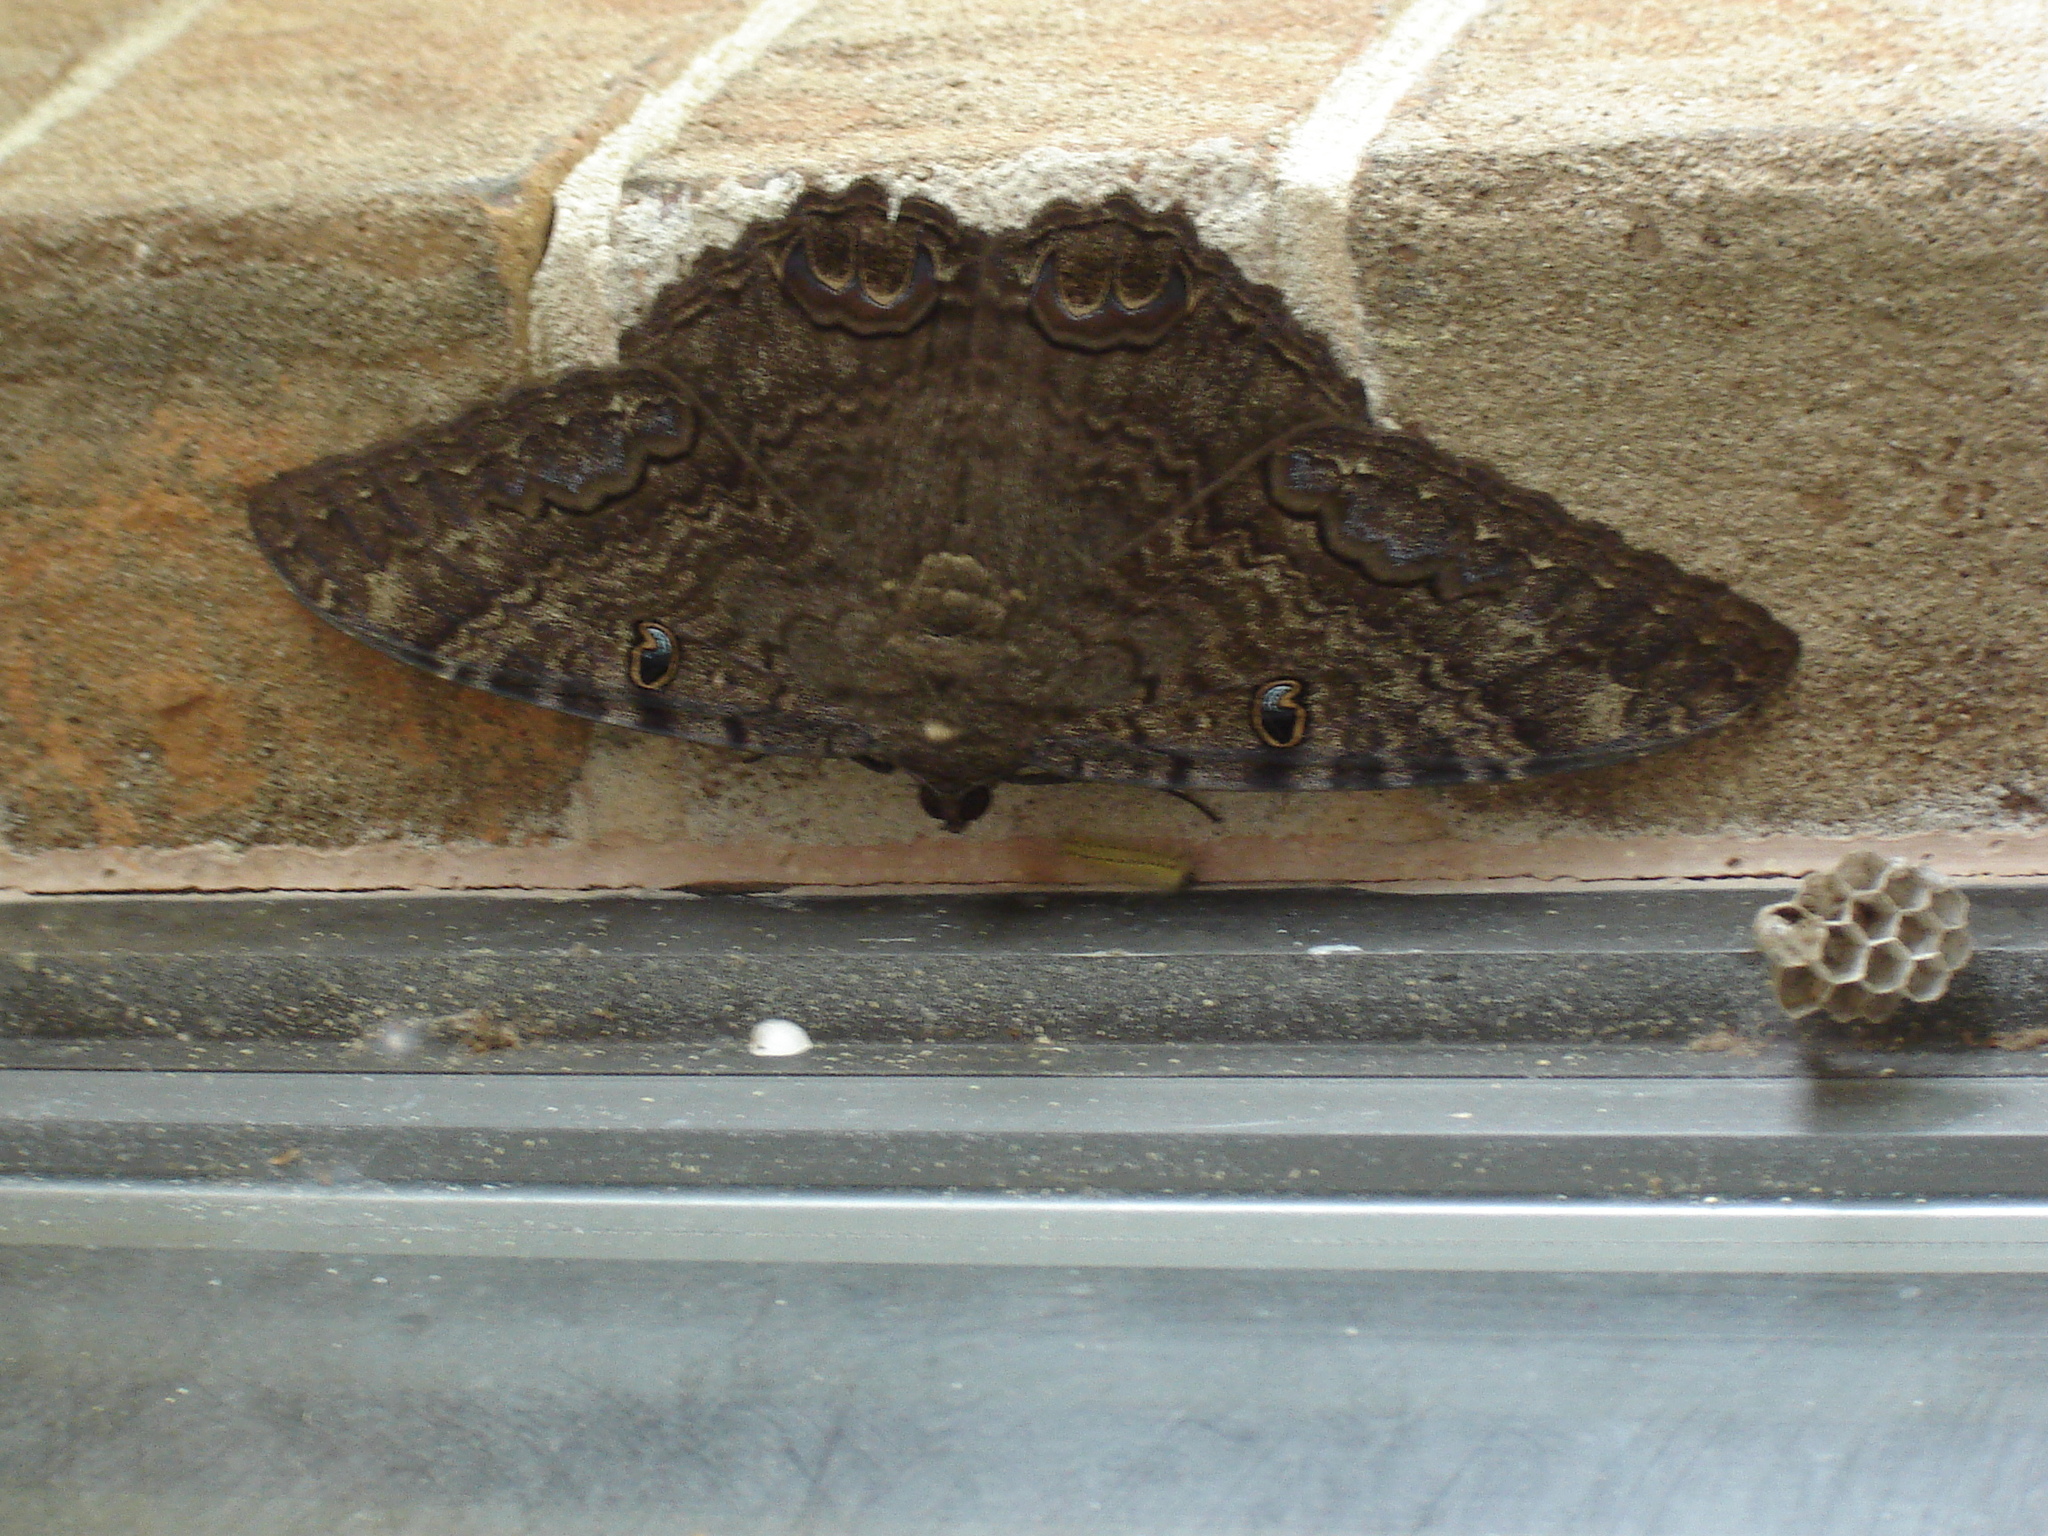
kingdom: Animalia
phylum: Arthropoda
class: Insecta
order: Lepidoptera
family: Erebidae
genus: Ascalapha
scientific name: Ascalapha odorata
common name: Black witch
